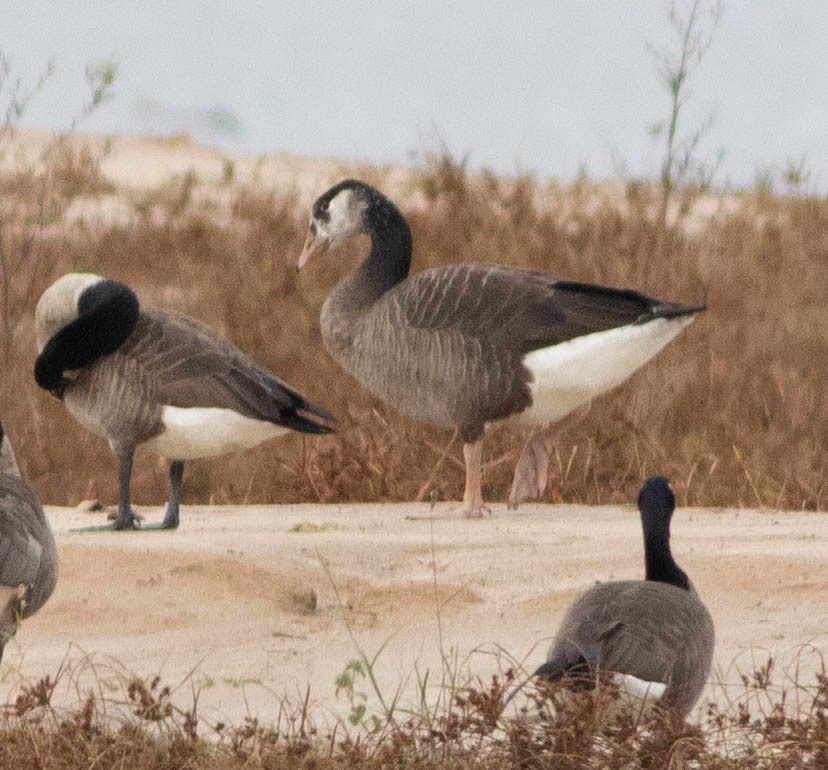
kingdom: Animalia
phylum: Chordata
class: Aves
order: Anseriformes
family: Anatidae
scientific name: Anatidae
